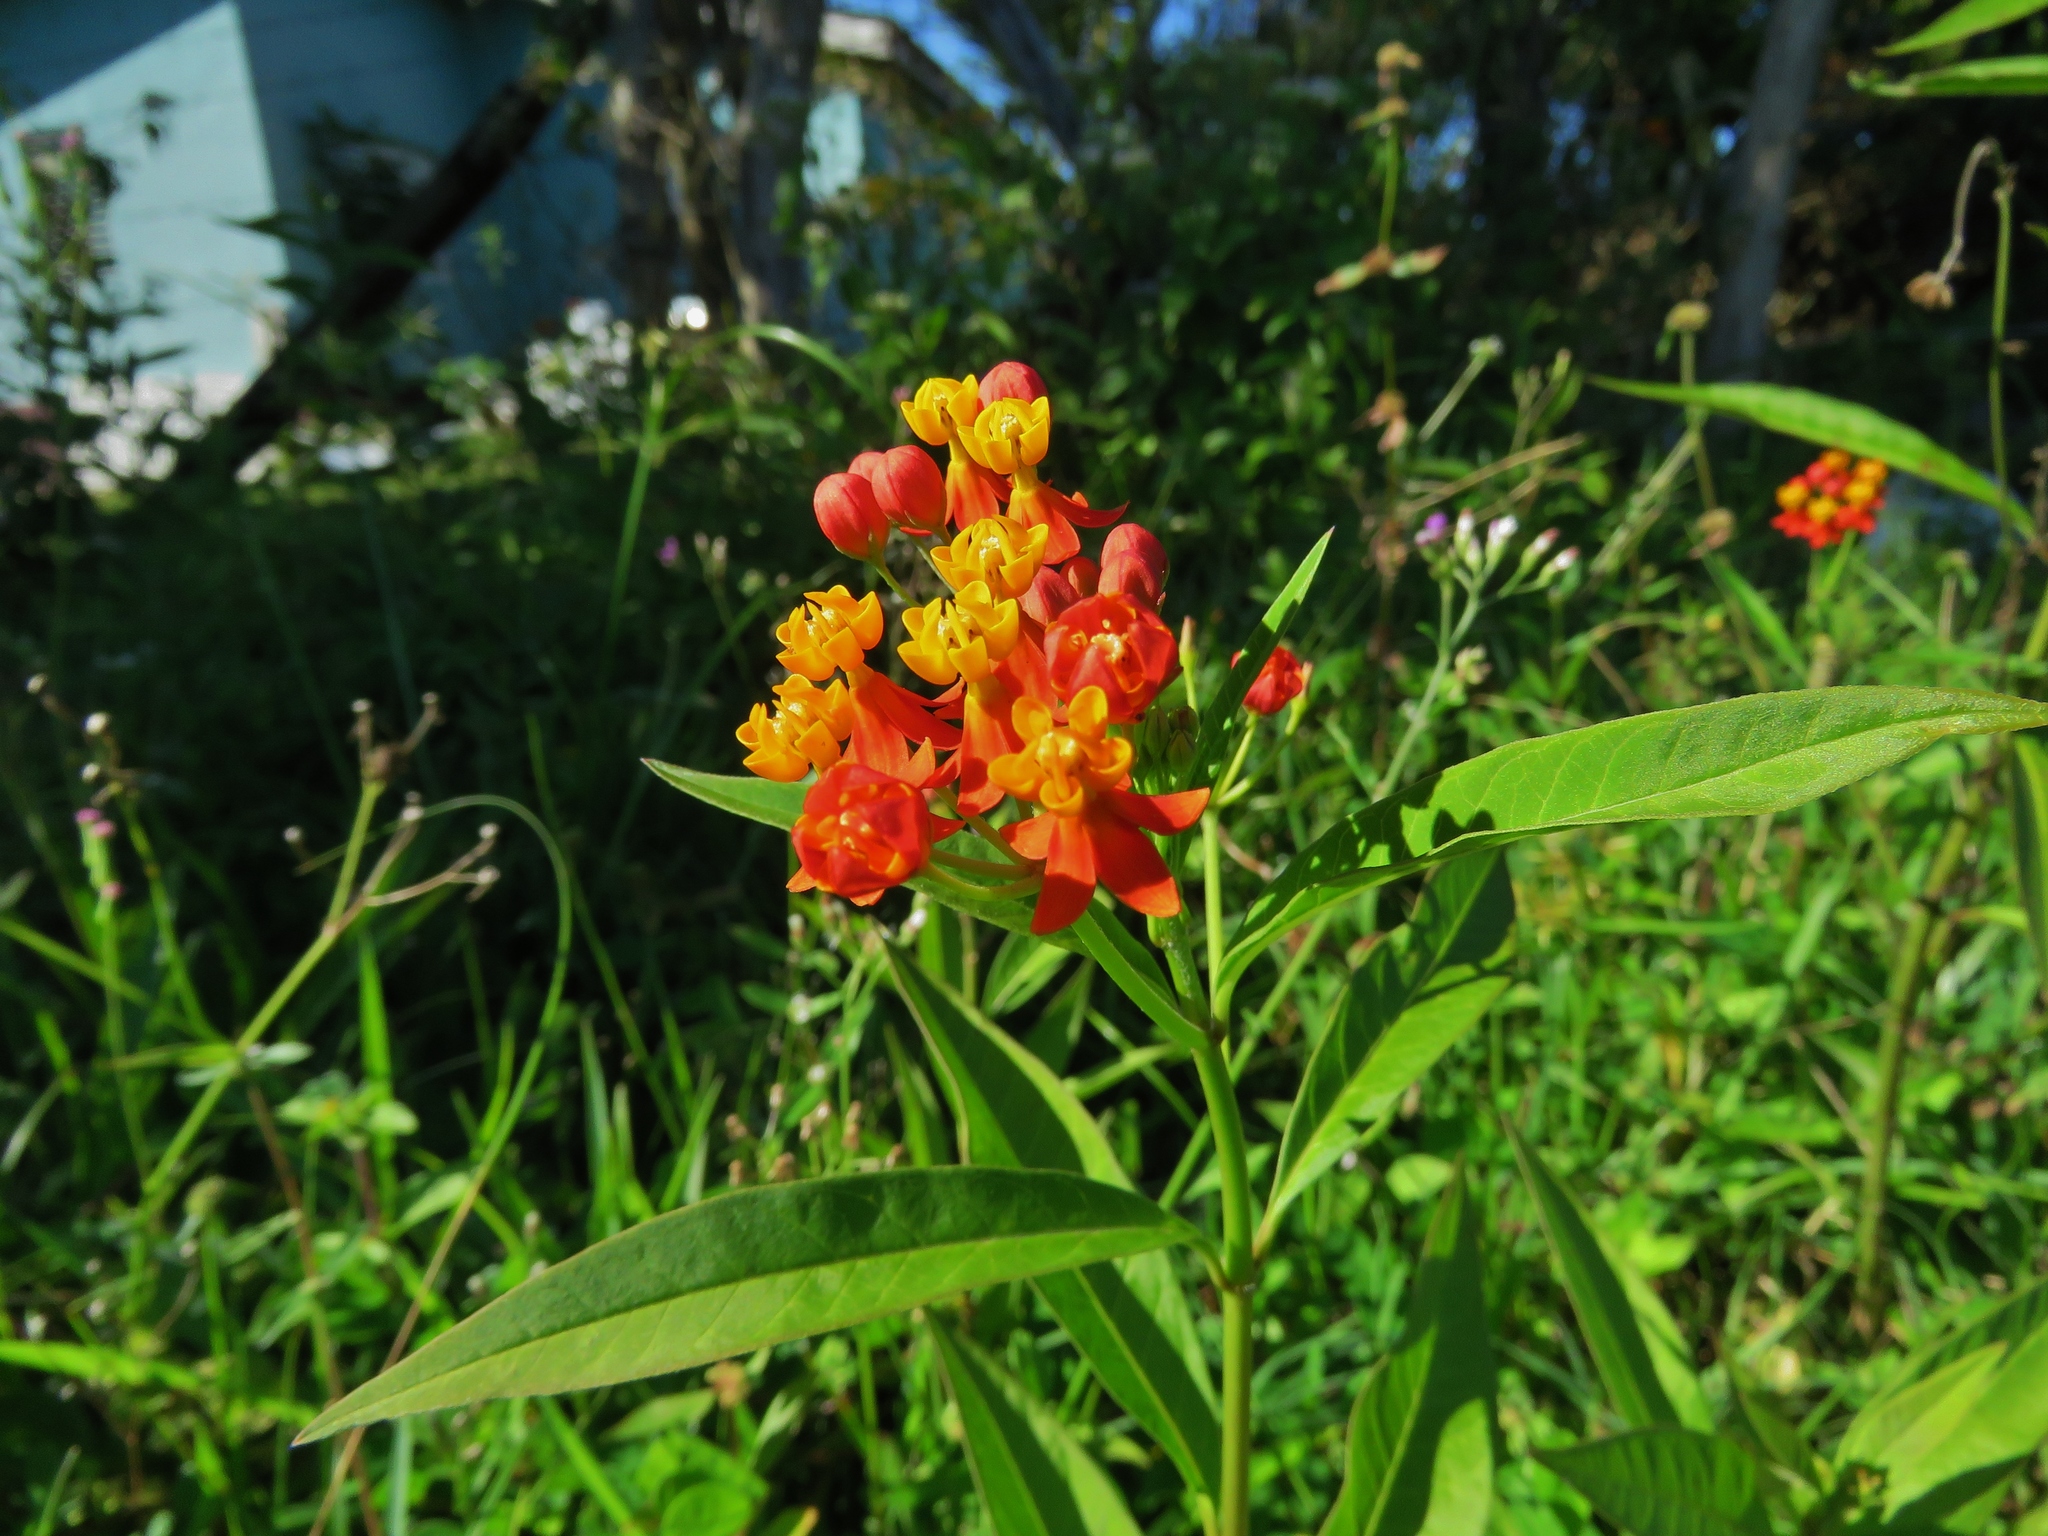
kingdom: Plantae
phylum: Tracheophyta
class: Magnoliopsida
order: Gentianales
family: Apocynaceae
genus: Asclepias
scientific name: Asclepias curassavica
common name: Bloodflower
